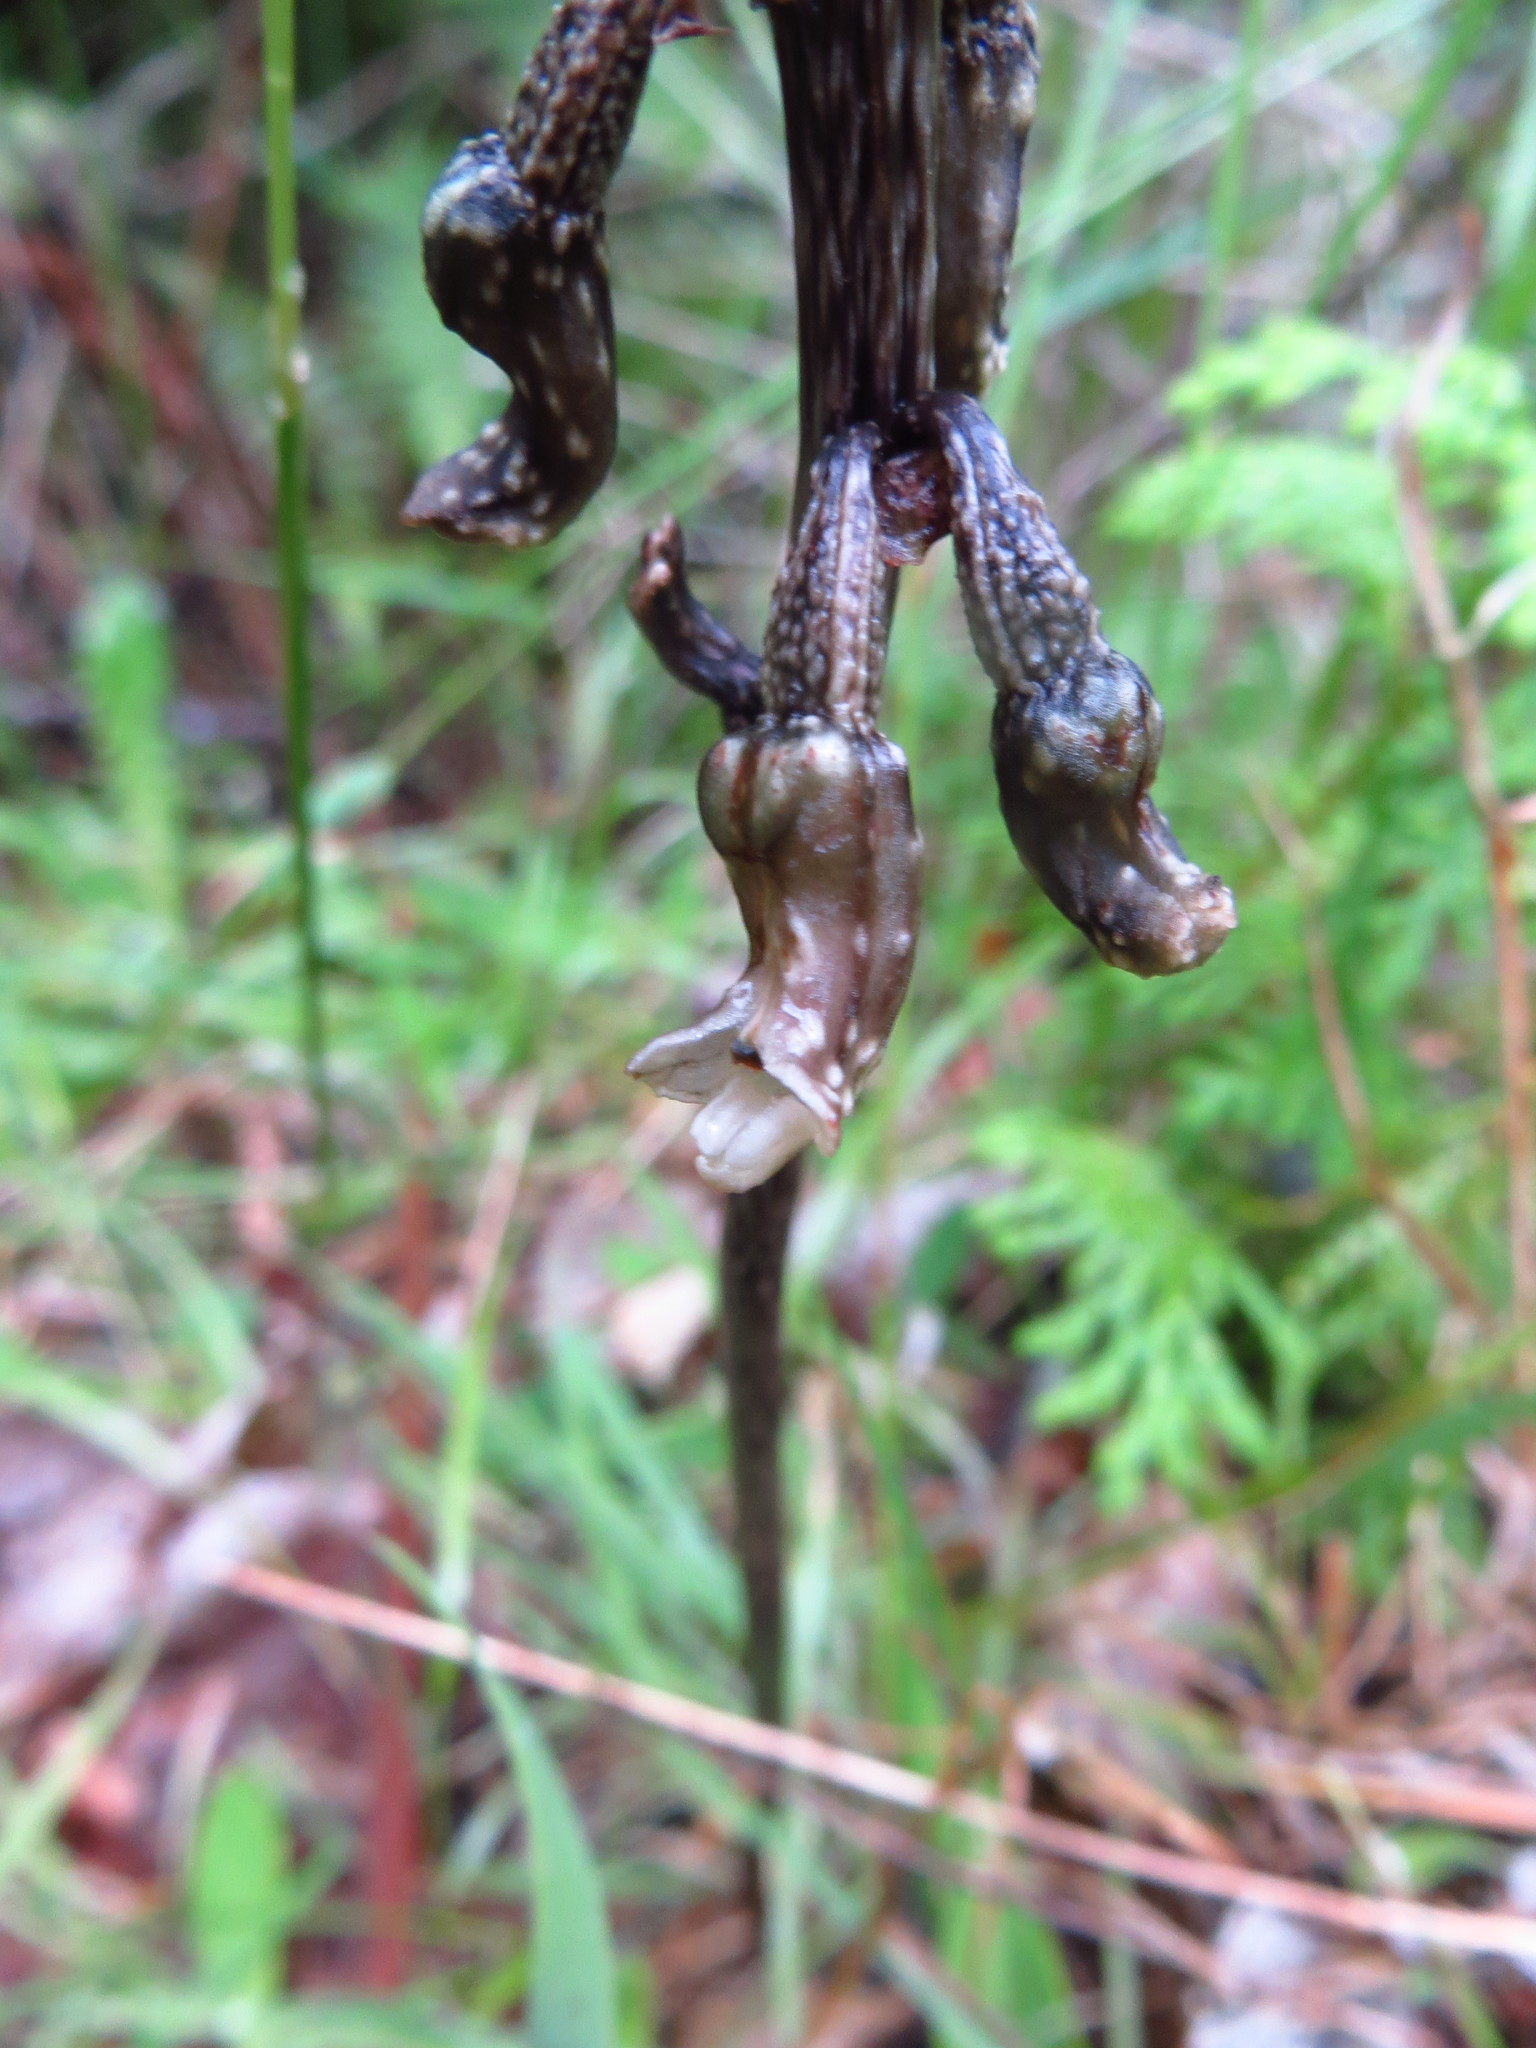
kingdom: Plantae
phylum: Tracheophyta
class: Liliopsida
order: Asparagales
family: Orchidaceae
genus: Gastrodia
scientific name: Gastrodia cunninghamii
